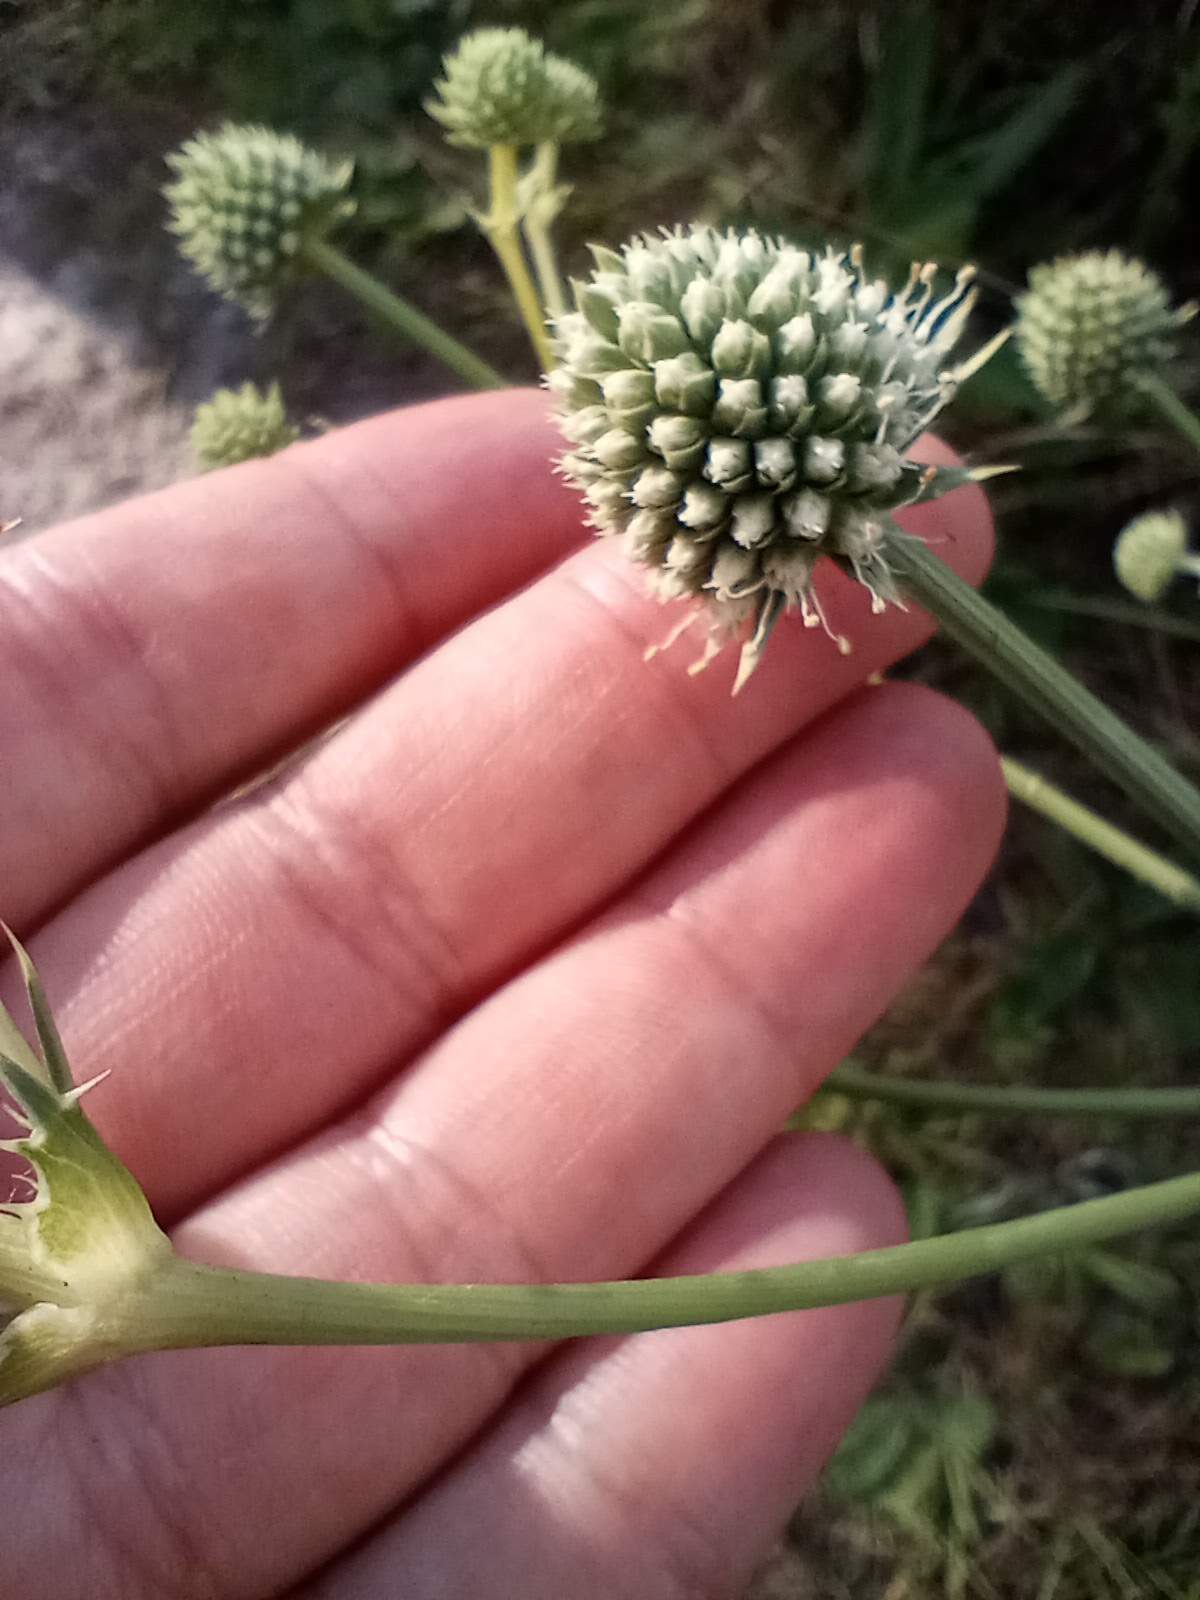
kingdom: Plantae
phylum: Tracheophyta
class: Magnoliopsida
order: Apiales
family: Apiaceae
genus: Eryngium
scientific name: Eryngium yuccifolium
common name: Button eryngo
